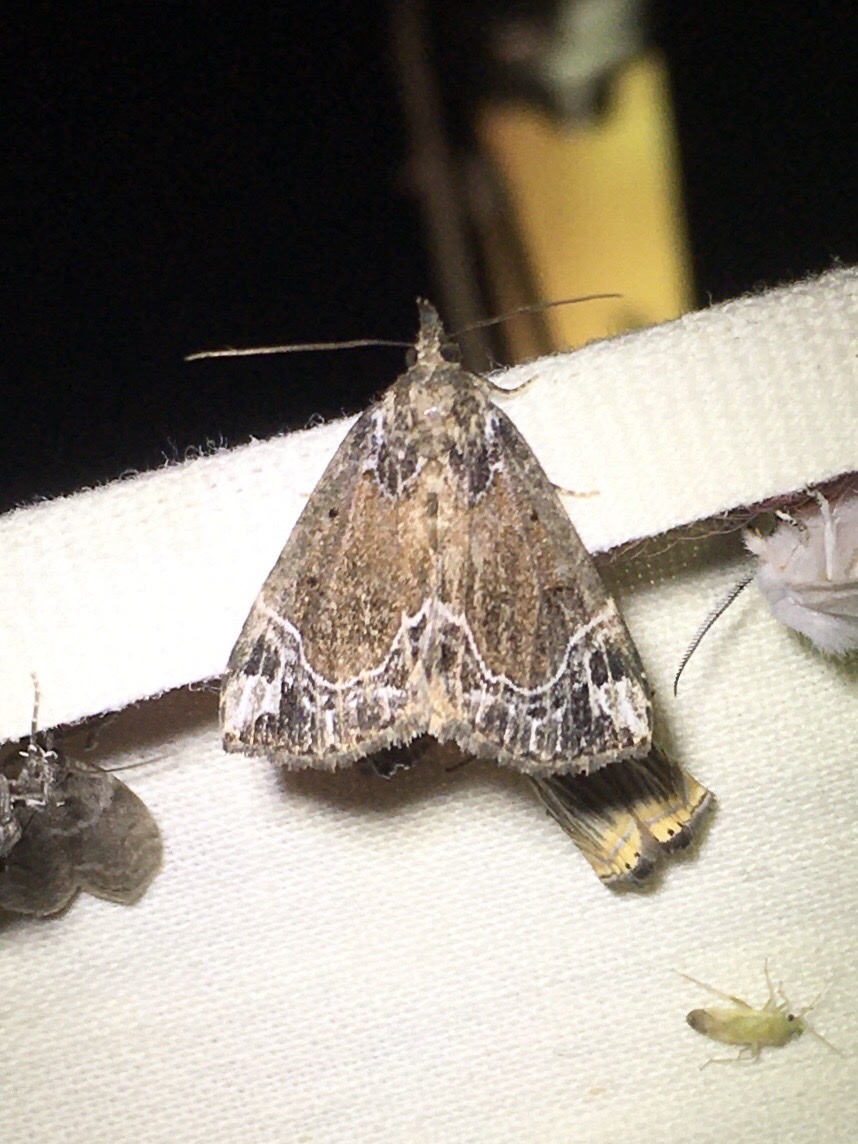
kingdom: Animalia
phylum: Arthropoda
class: Insecta
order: Lepidoptera
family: Erebidae
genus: Hypena
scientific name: Hypena abalienalis
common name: White-lined snout
